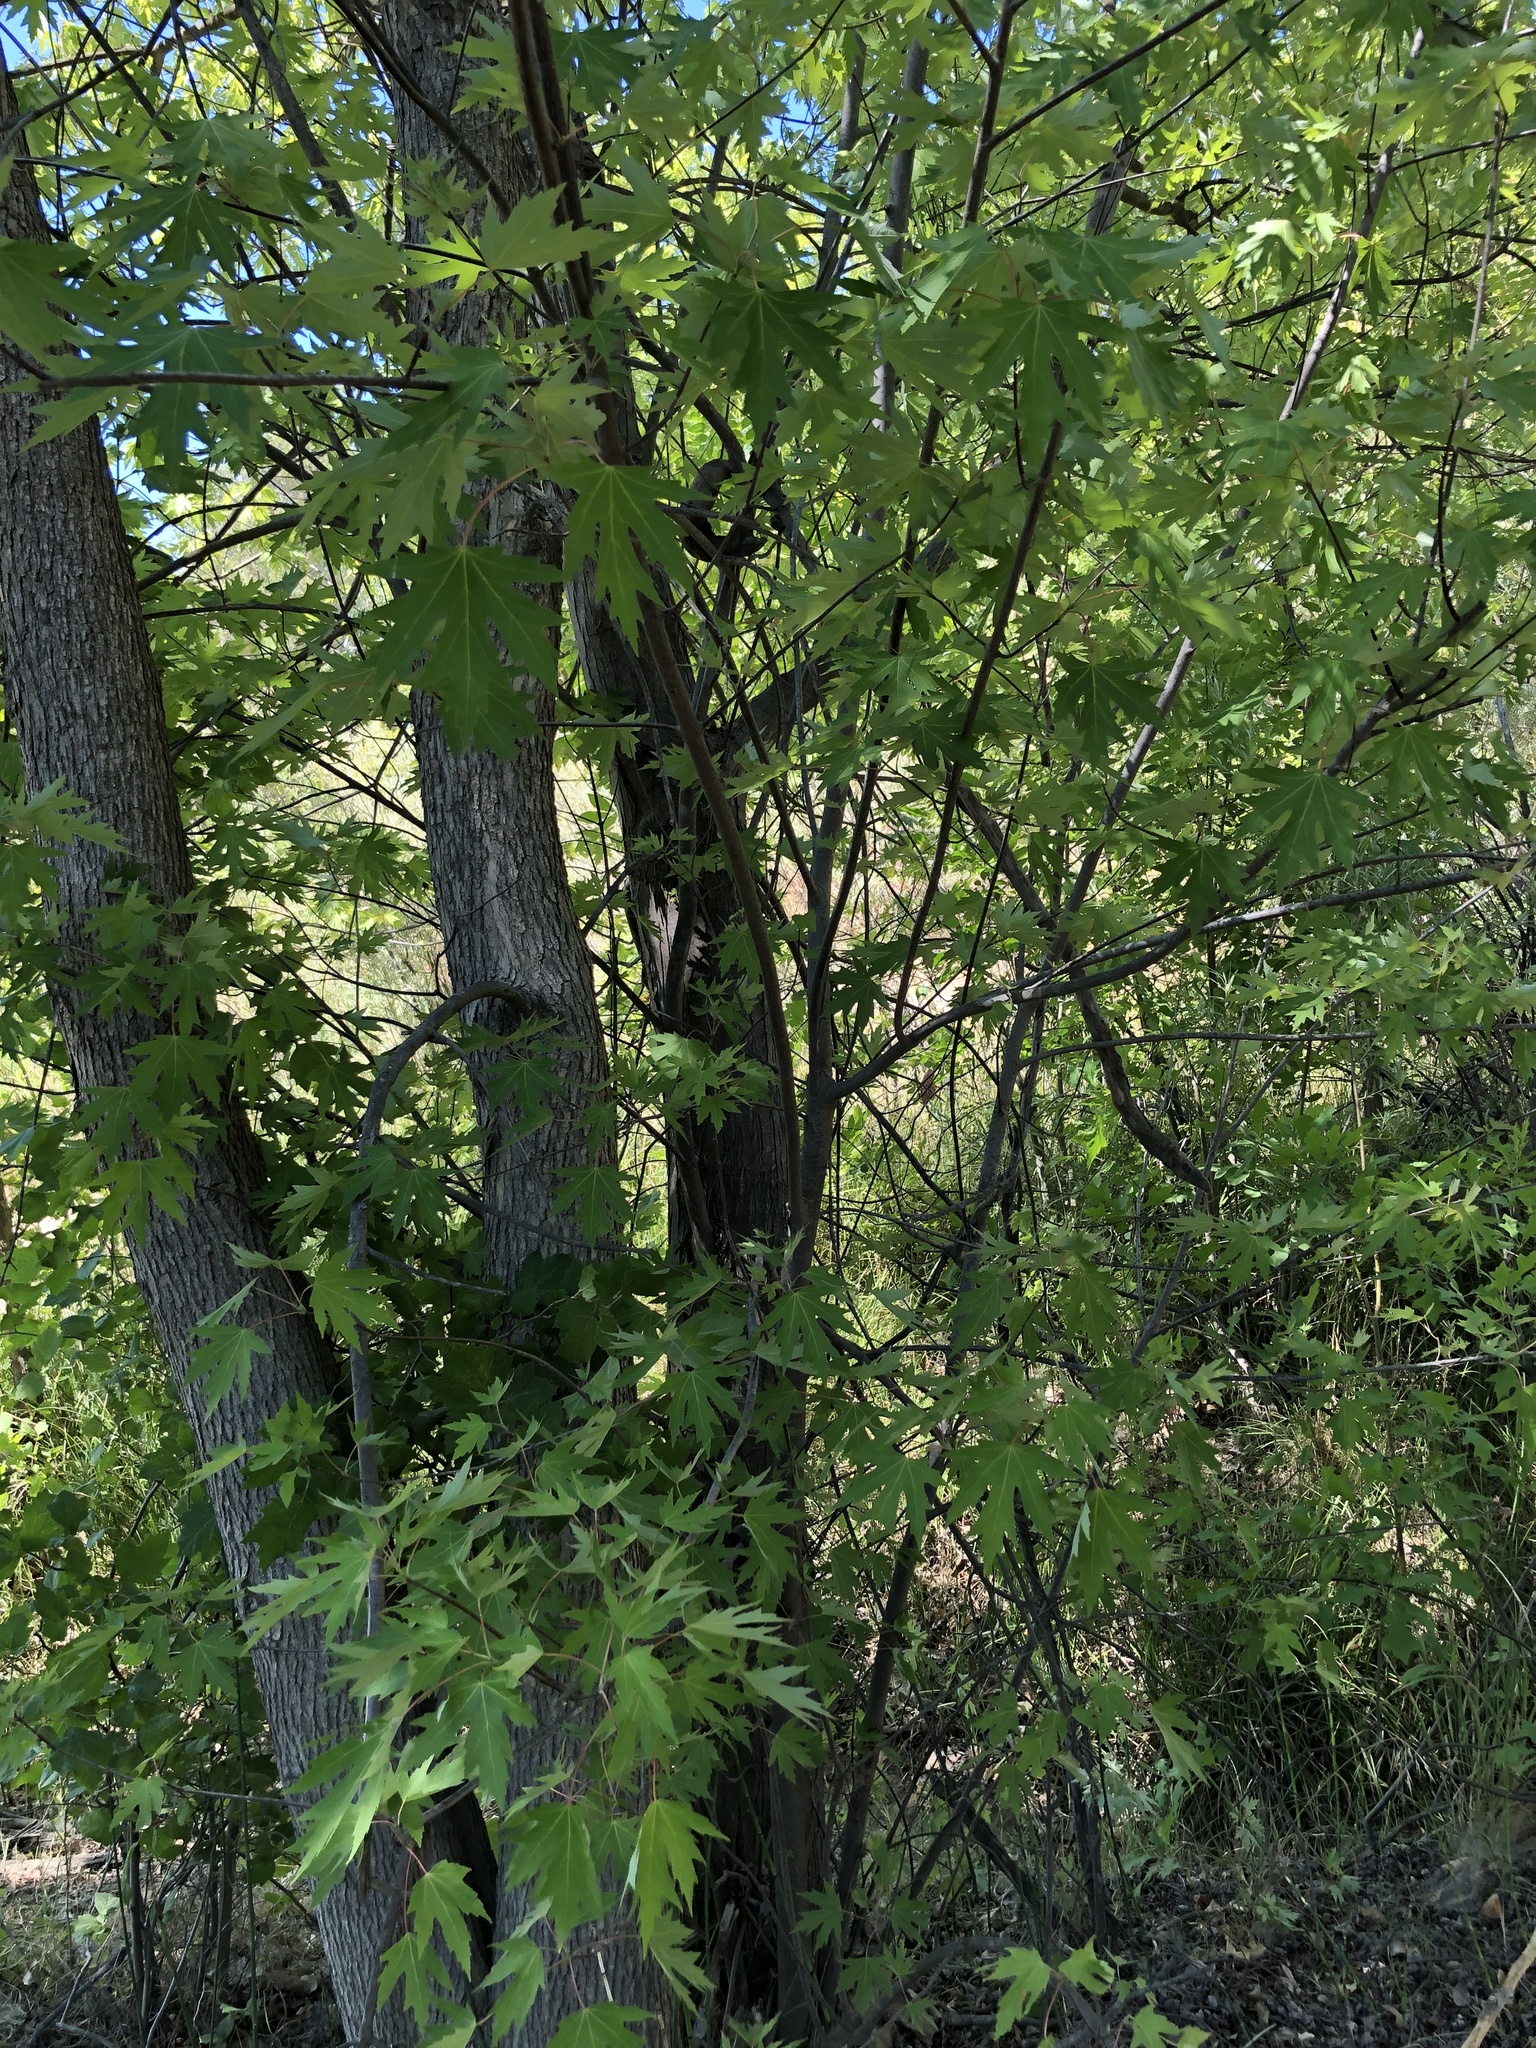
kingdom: Plantae
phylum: Tracheophyta
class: Magnoliopsida
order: Sapindales
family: Sapindaceae
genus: Acer
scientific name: Acer saccharinum
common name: Silver maple
